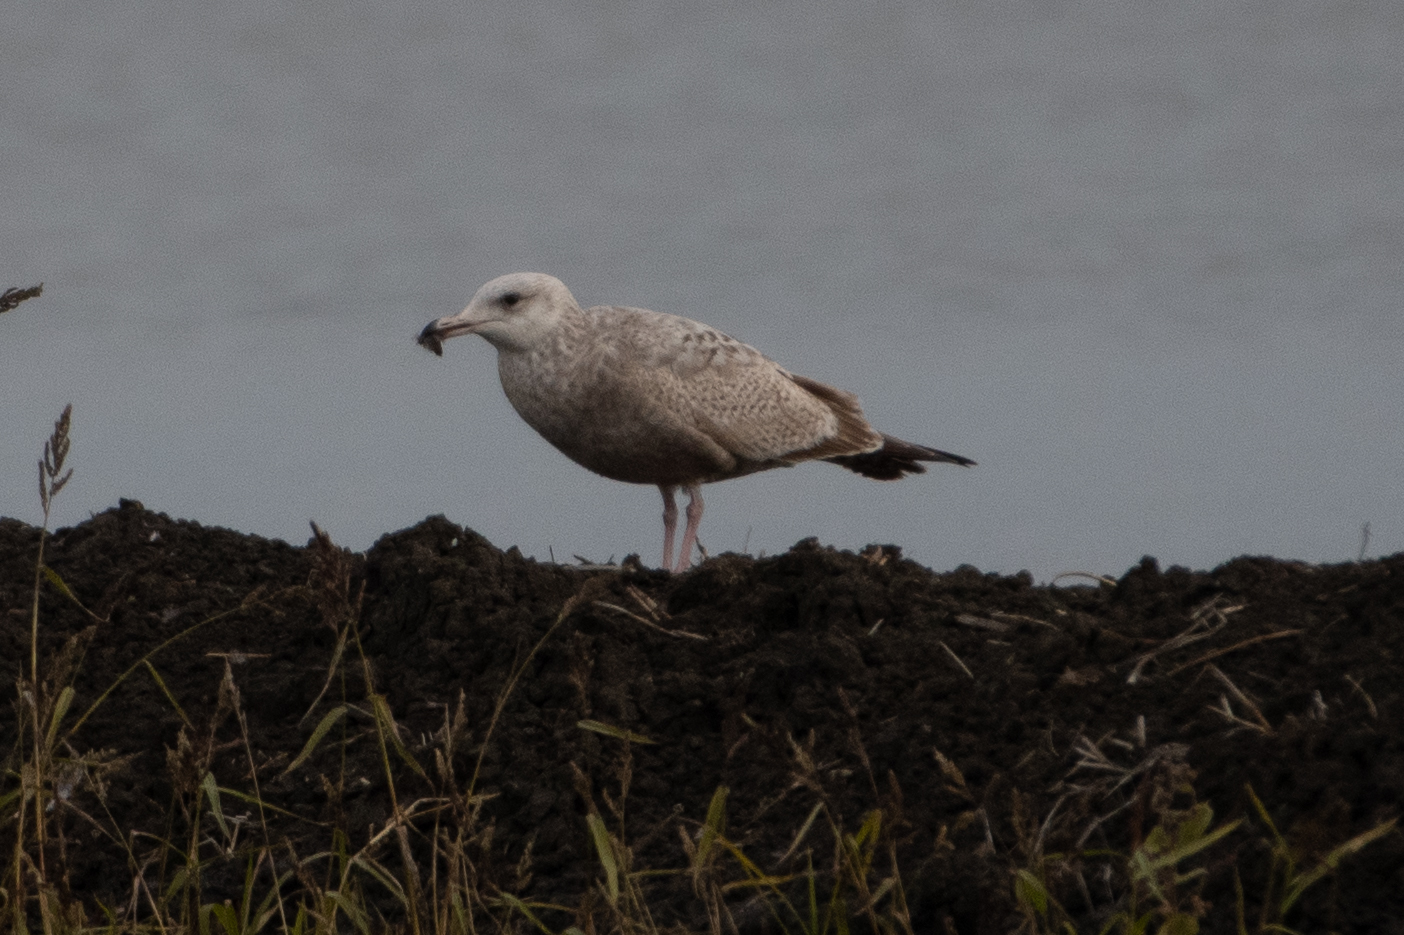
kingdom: Animalia
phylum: Chordata
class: Aves
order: Charadriiformes
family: Laridae
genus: Larus
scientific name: Larus argentatus
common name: Herring gull
